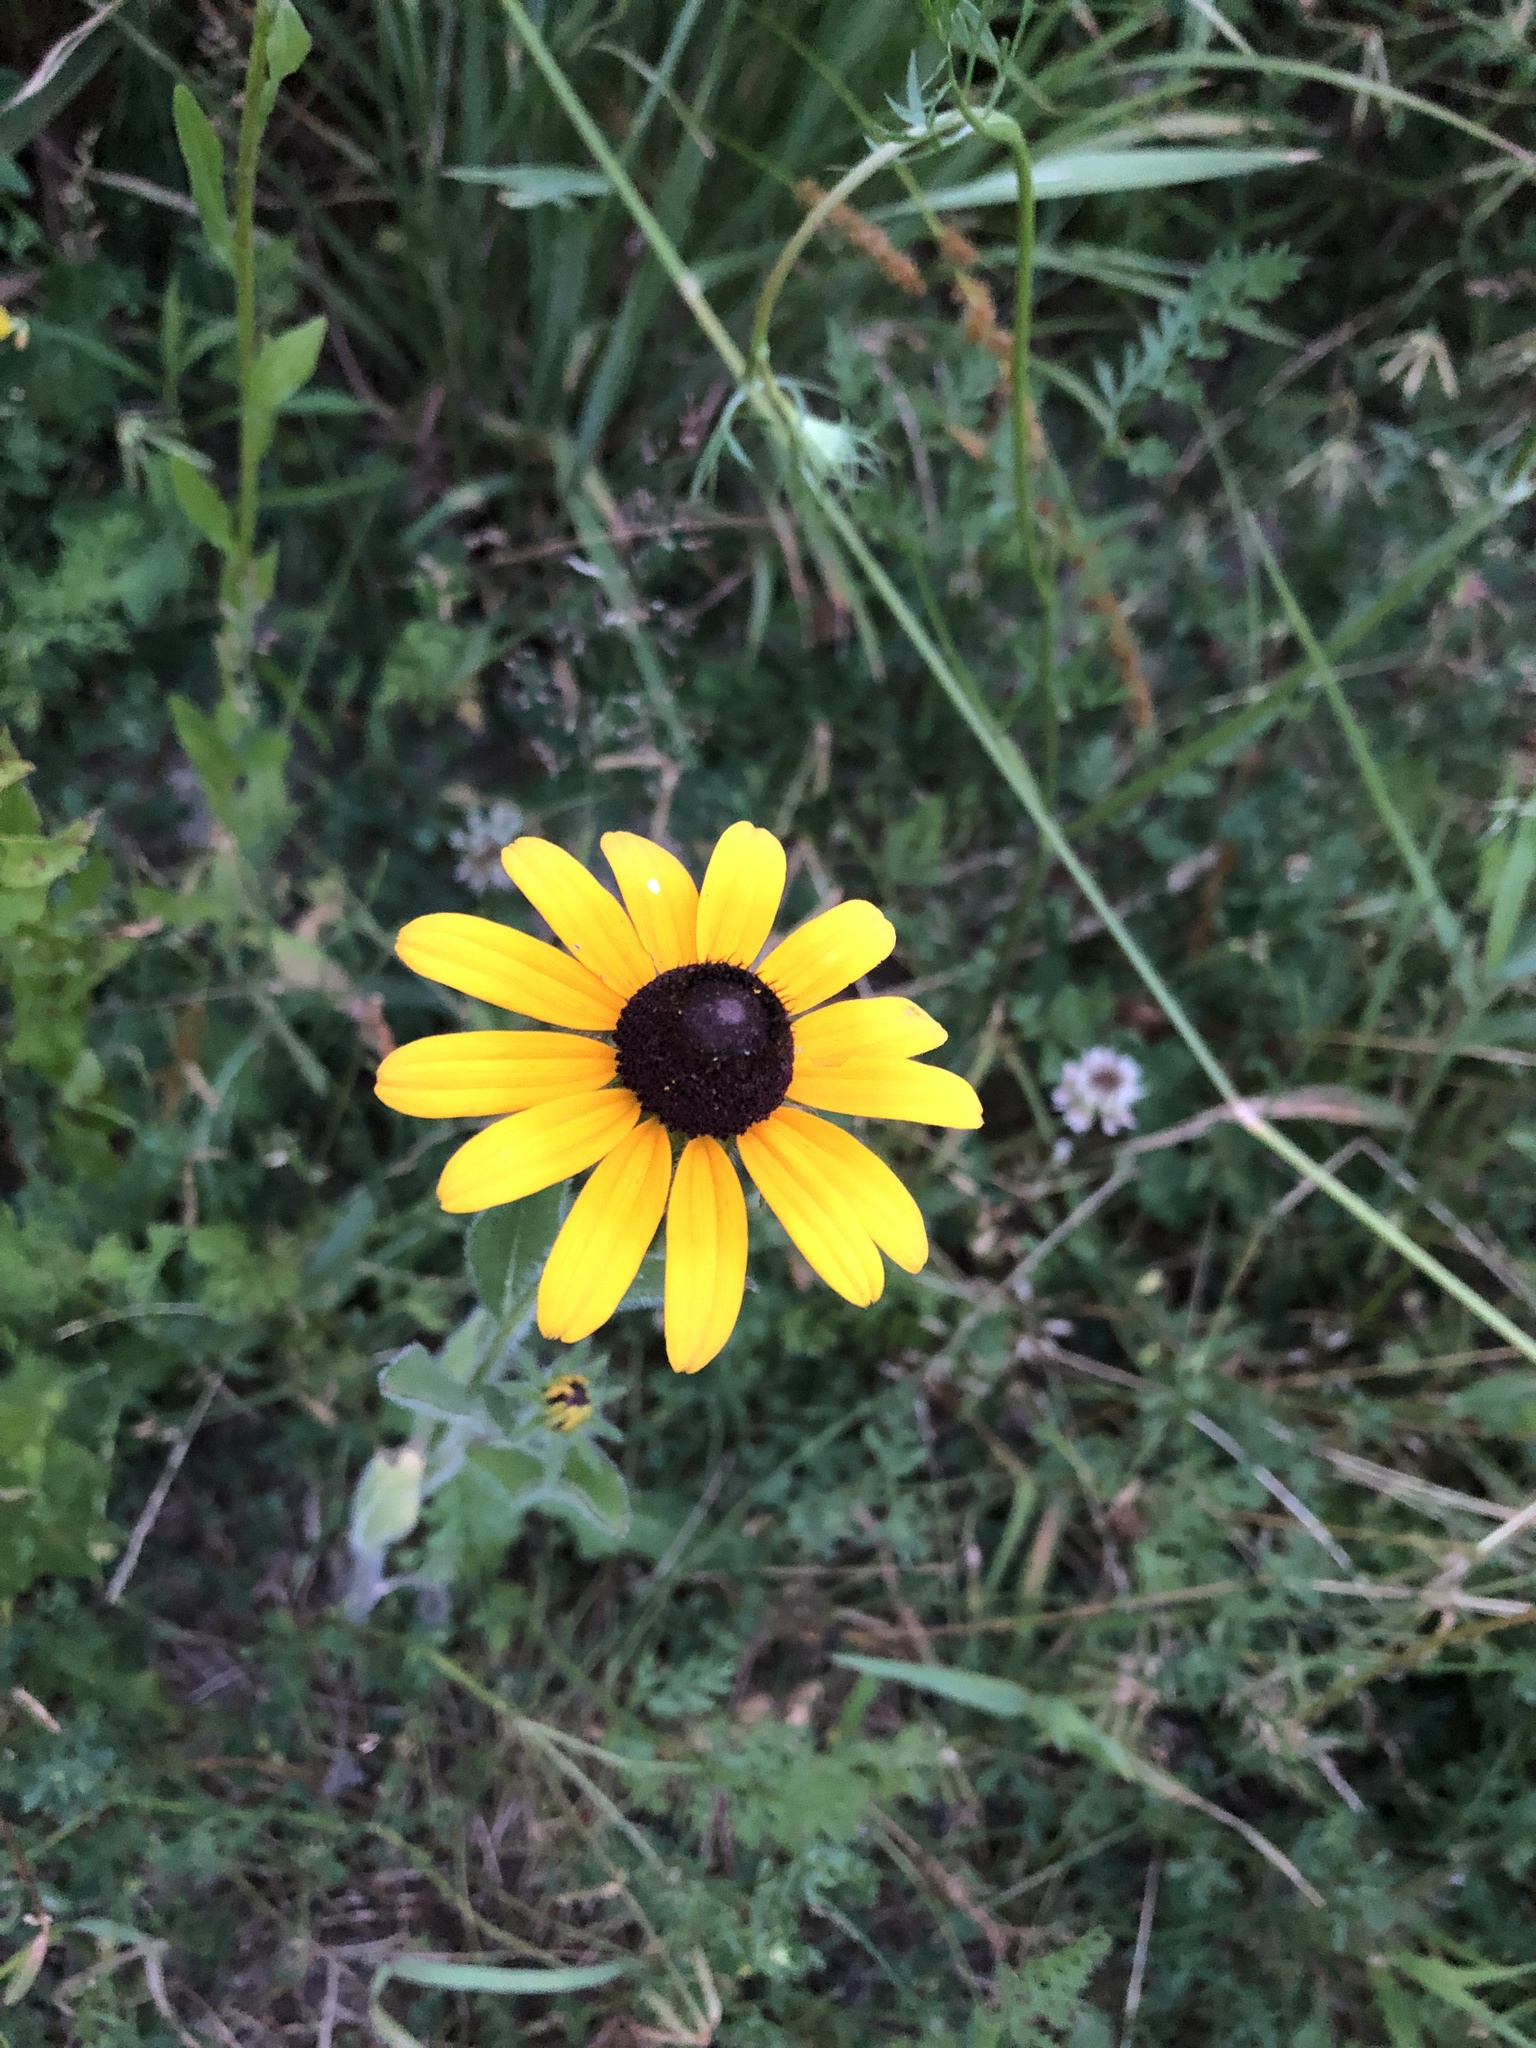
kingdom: Plantae
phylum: Tracheophyta
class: Magnoliopsida
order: Asterales
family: Asteraceae
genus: Rudbeckia
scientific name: Rudbeckia hirta
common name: Black-eyed-susan
